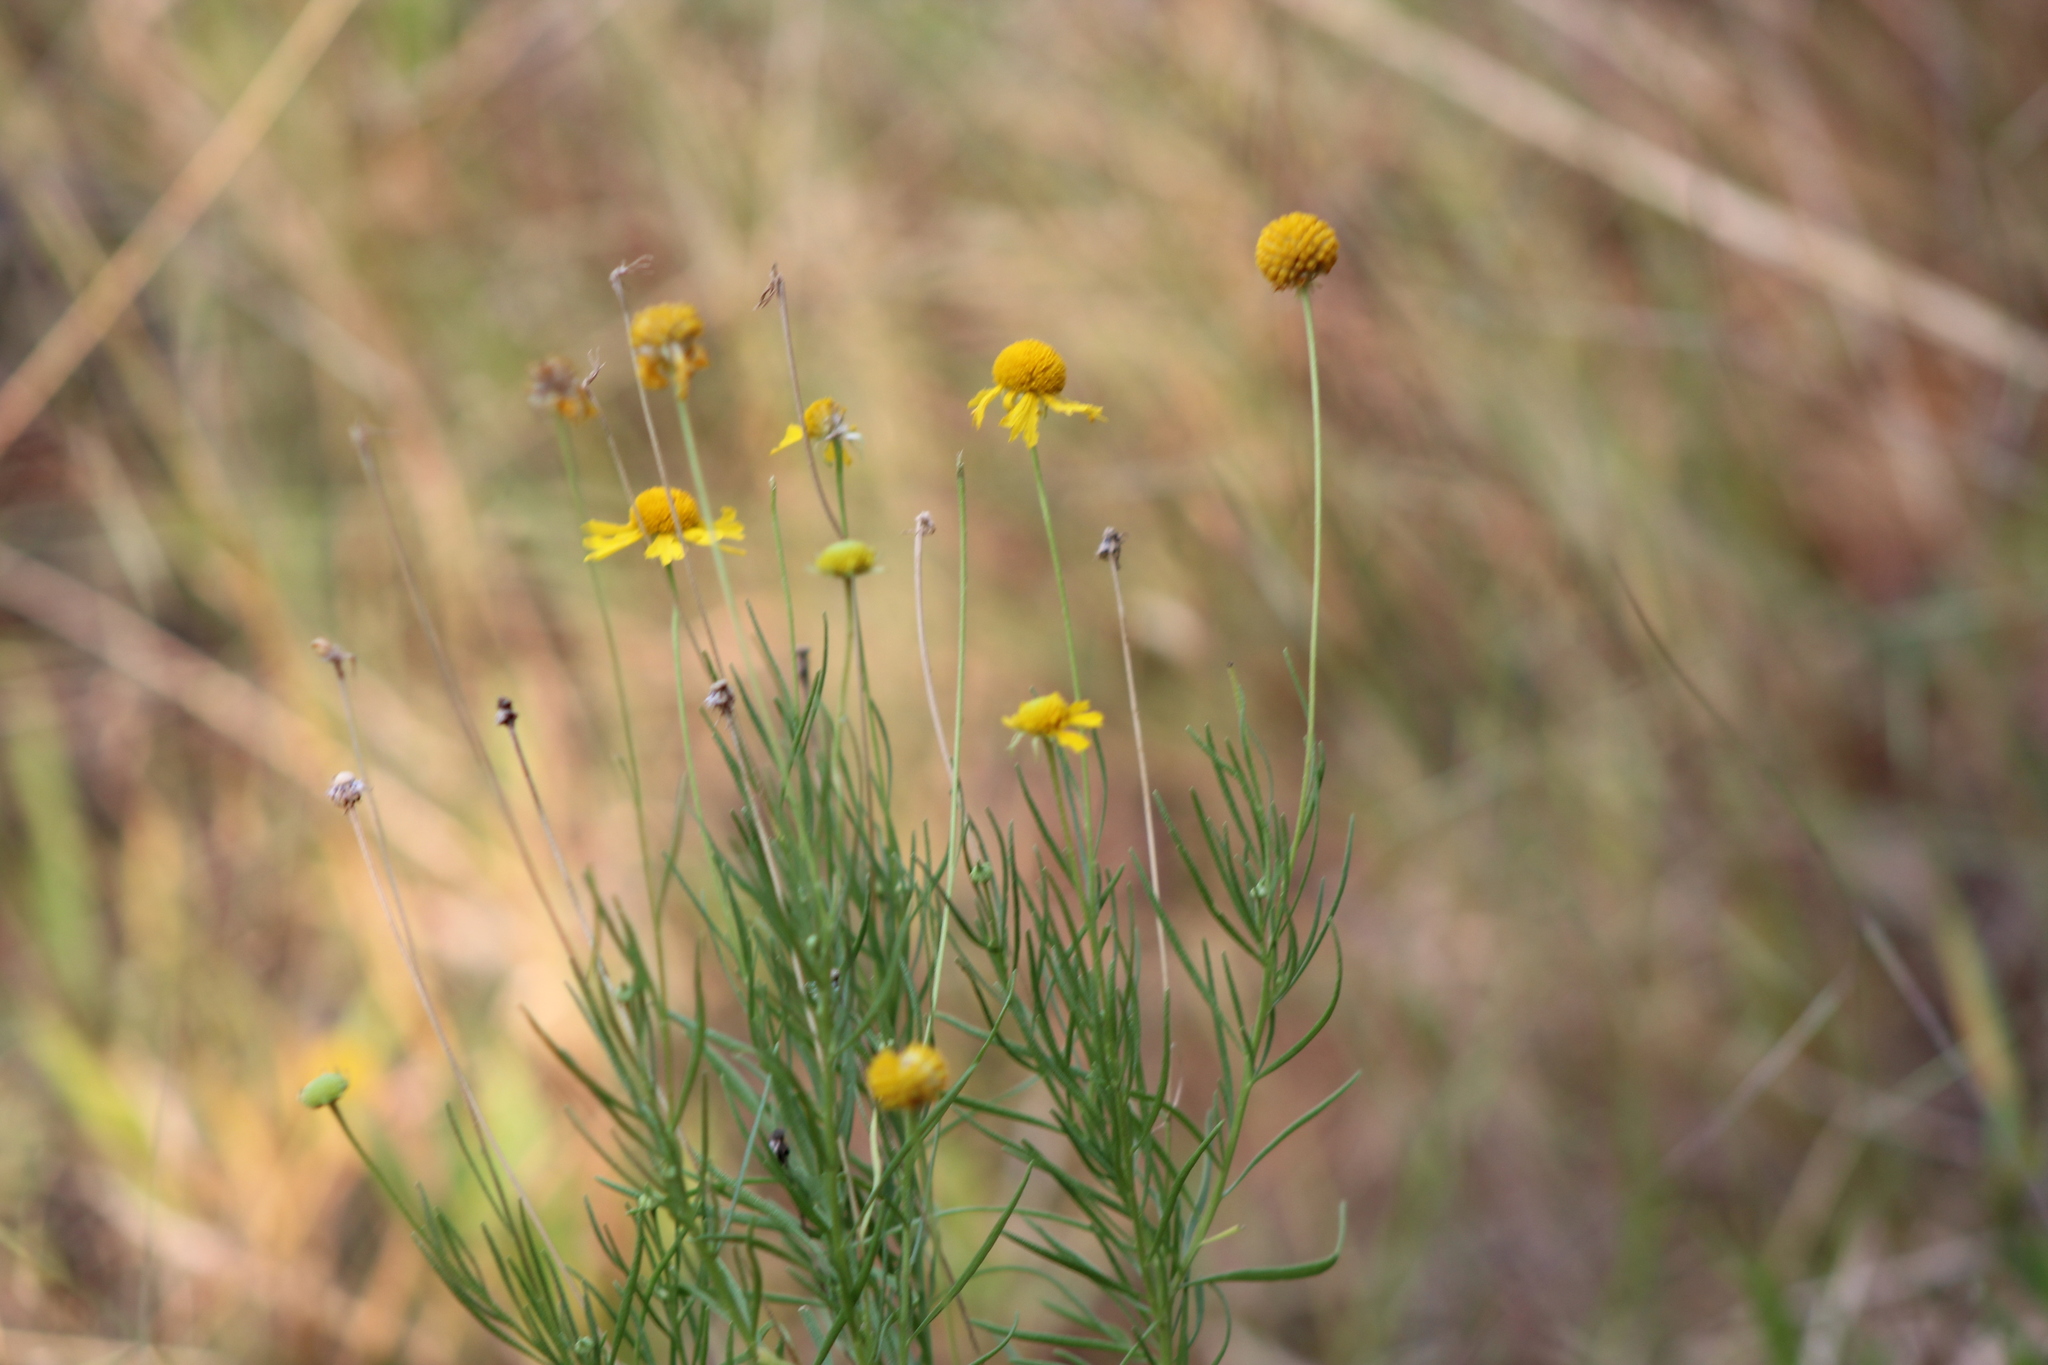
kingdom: Plantae
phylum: Tracheophyta
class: Magnoliopsida
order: Asterales
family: Asteraceae
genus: Helenium
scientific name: Helenium amarum
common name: Bitter sneezeweed
